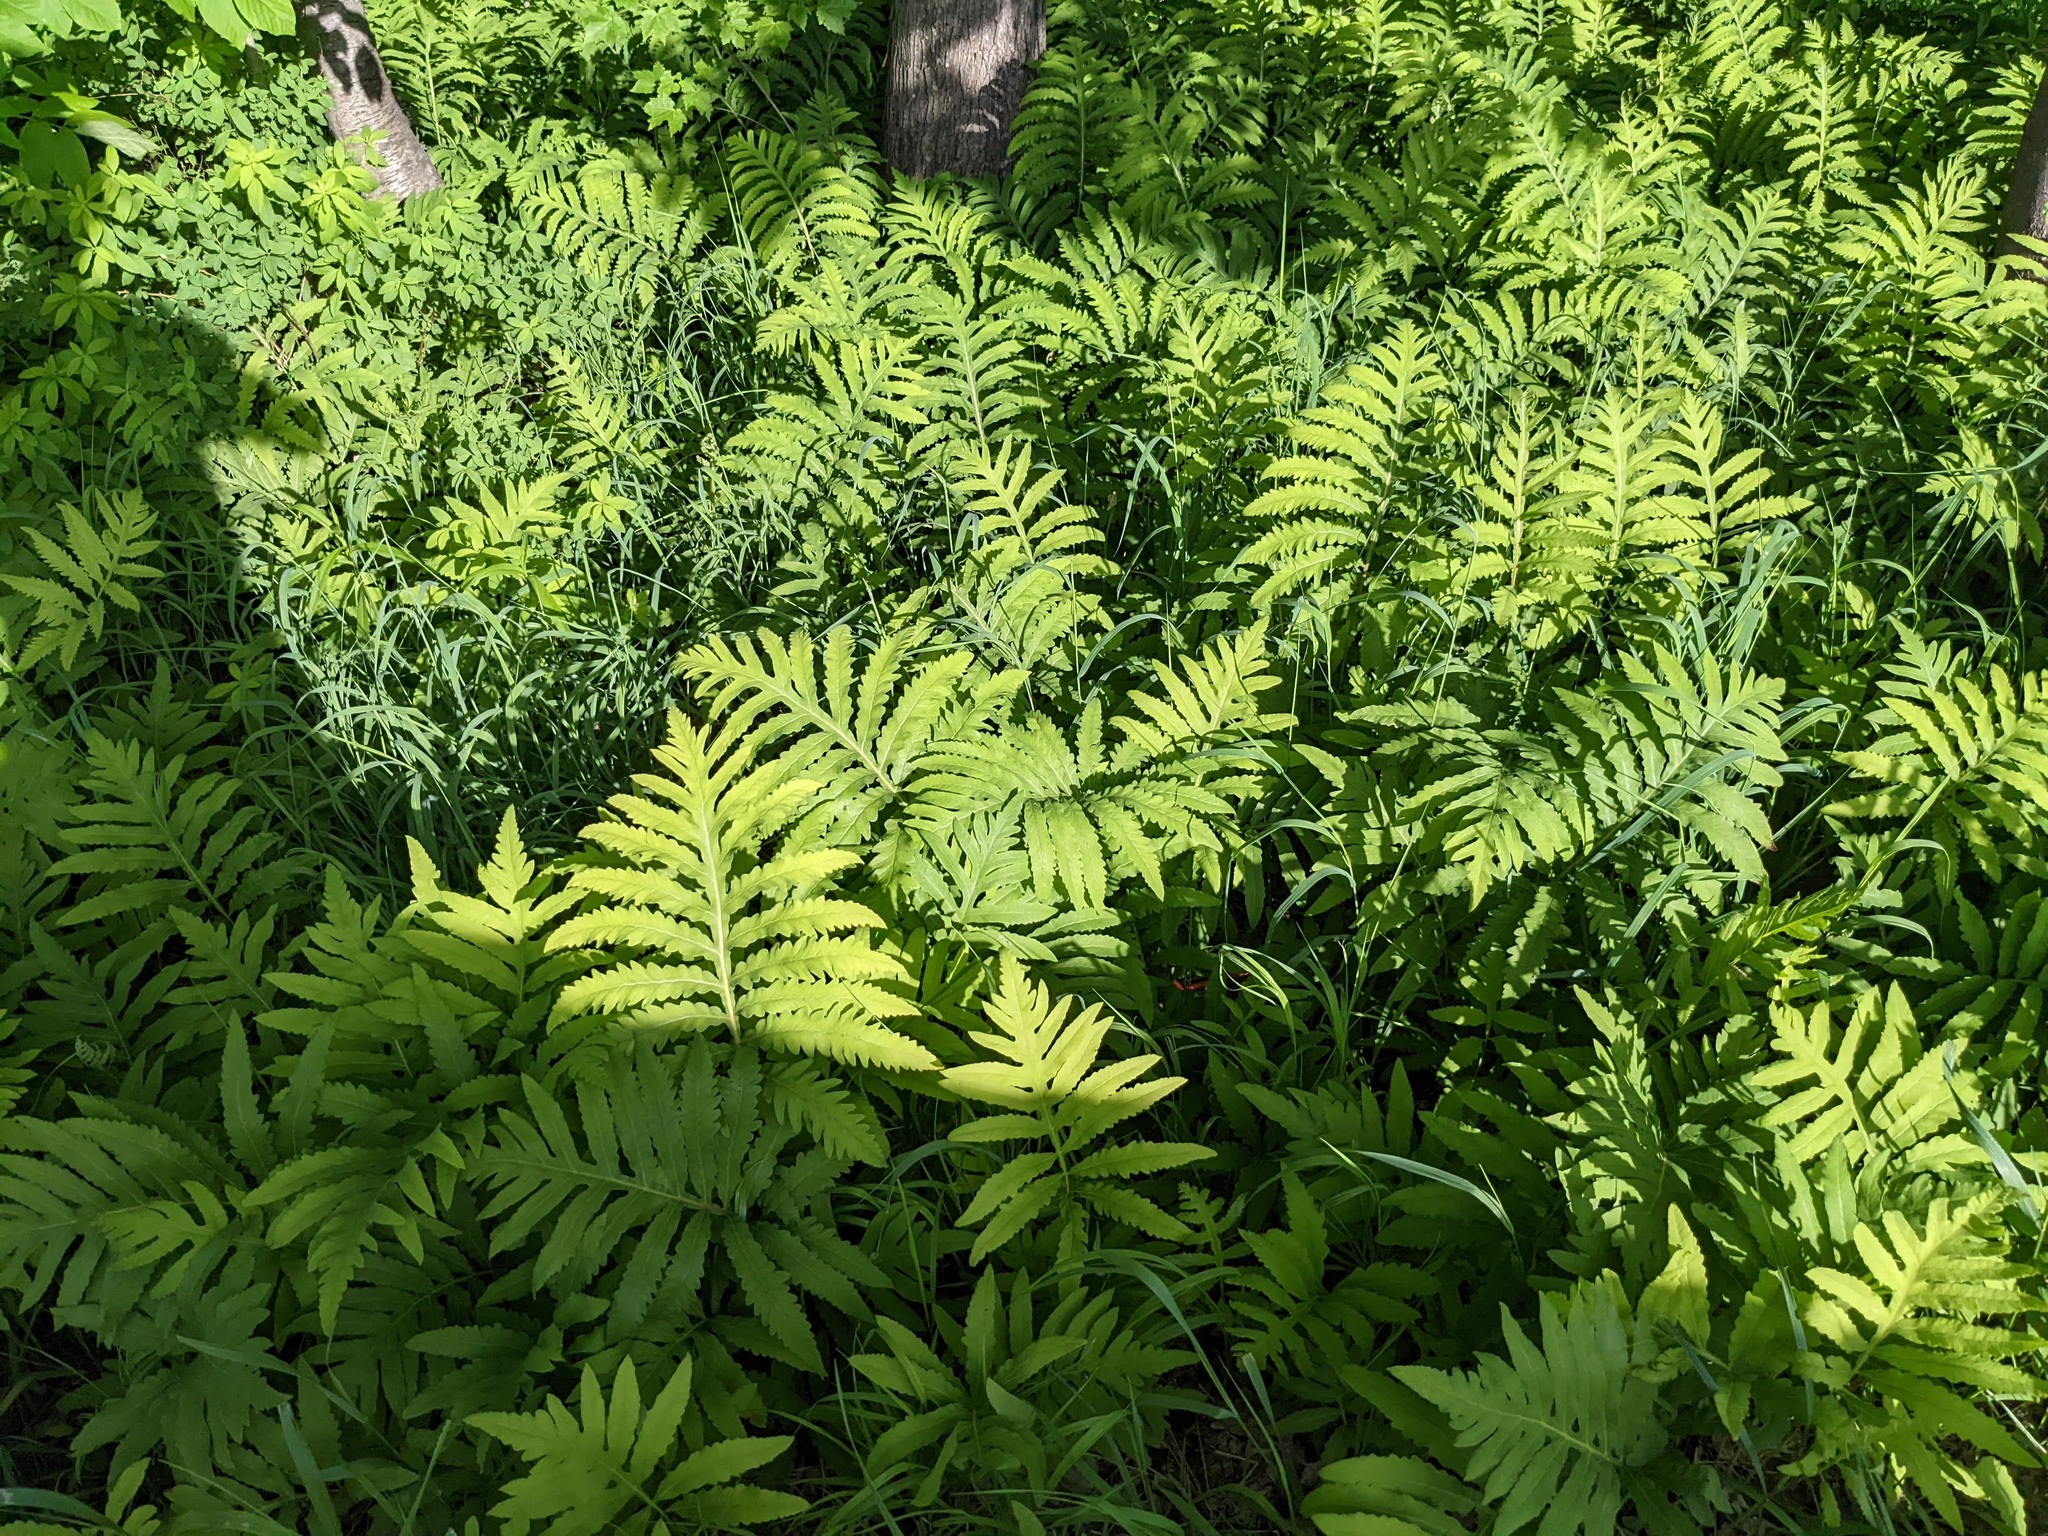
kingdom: Plantae
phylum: Tracheophyta
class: Polypodiopsida
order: Polypodiales
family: Onocleaceae
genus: Onoclea
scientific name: Onoclea sensibilis
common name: Sensitive fern
